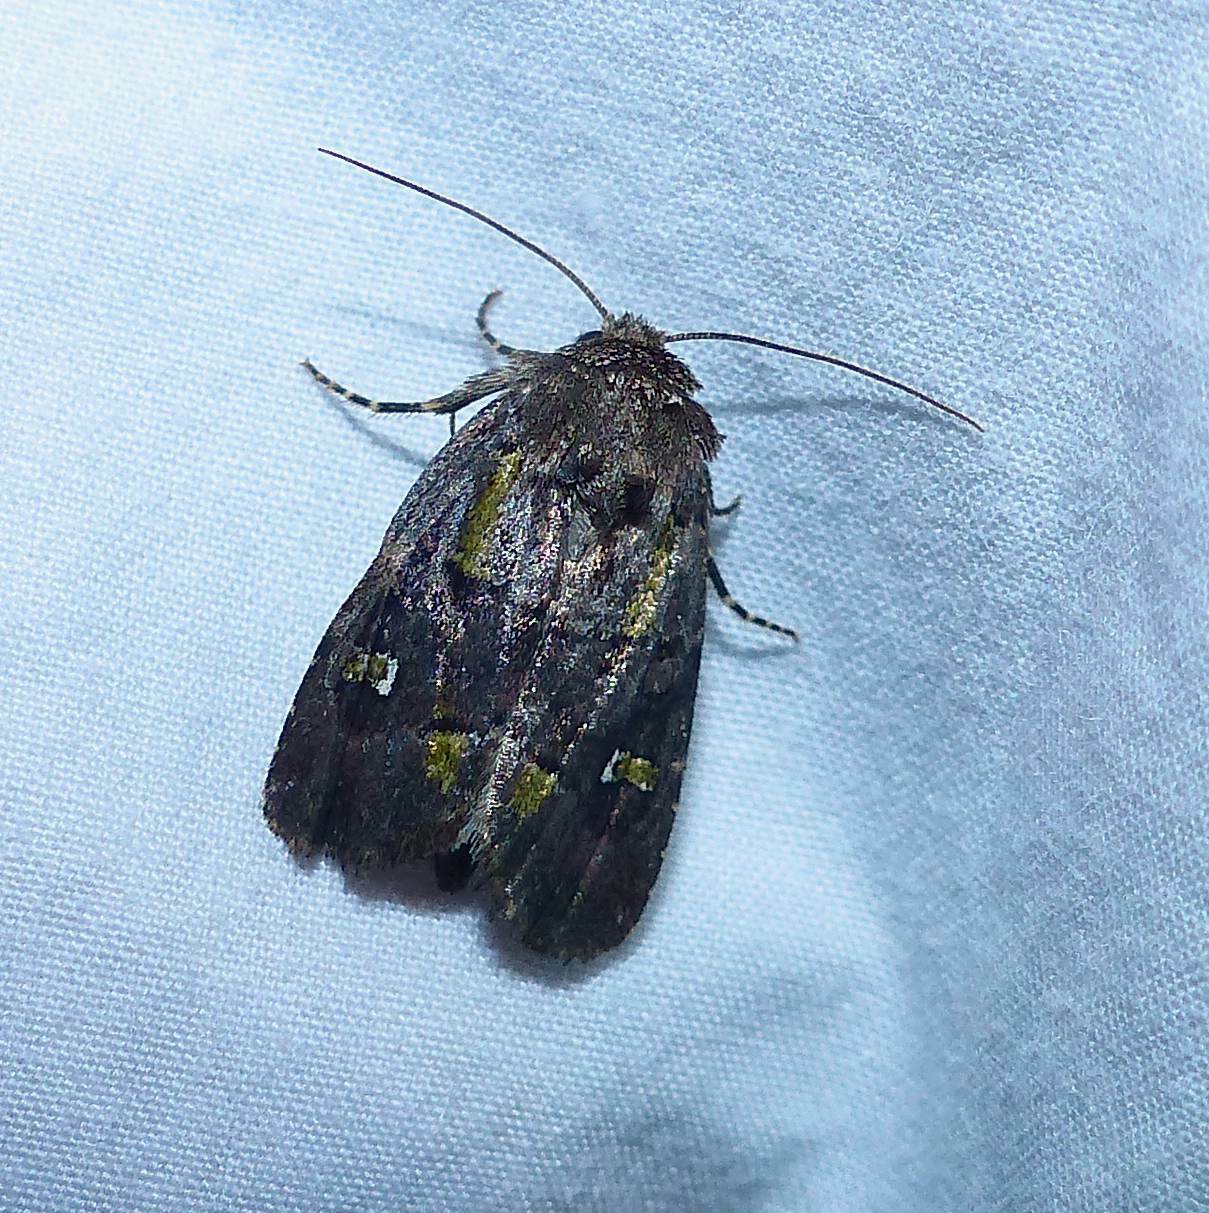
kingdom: Animalia
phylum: Arthropoda
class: Insecta
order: Lepidoptera
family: Noctuidae
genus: Lacinipolia
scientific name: Lacinipolia renigera
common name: Kidney-spotted minor
